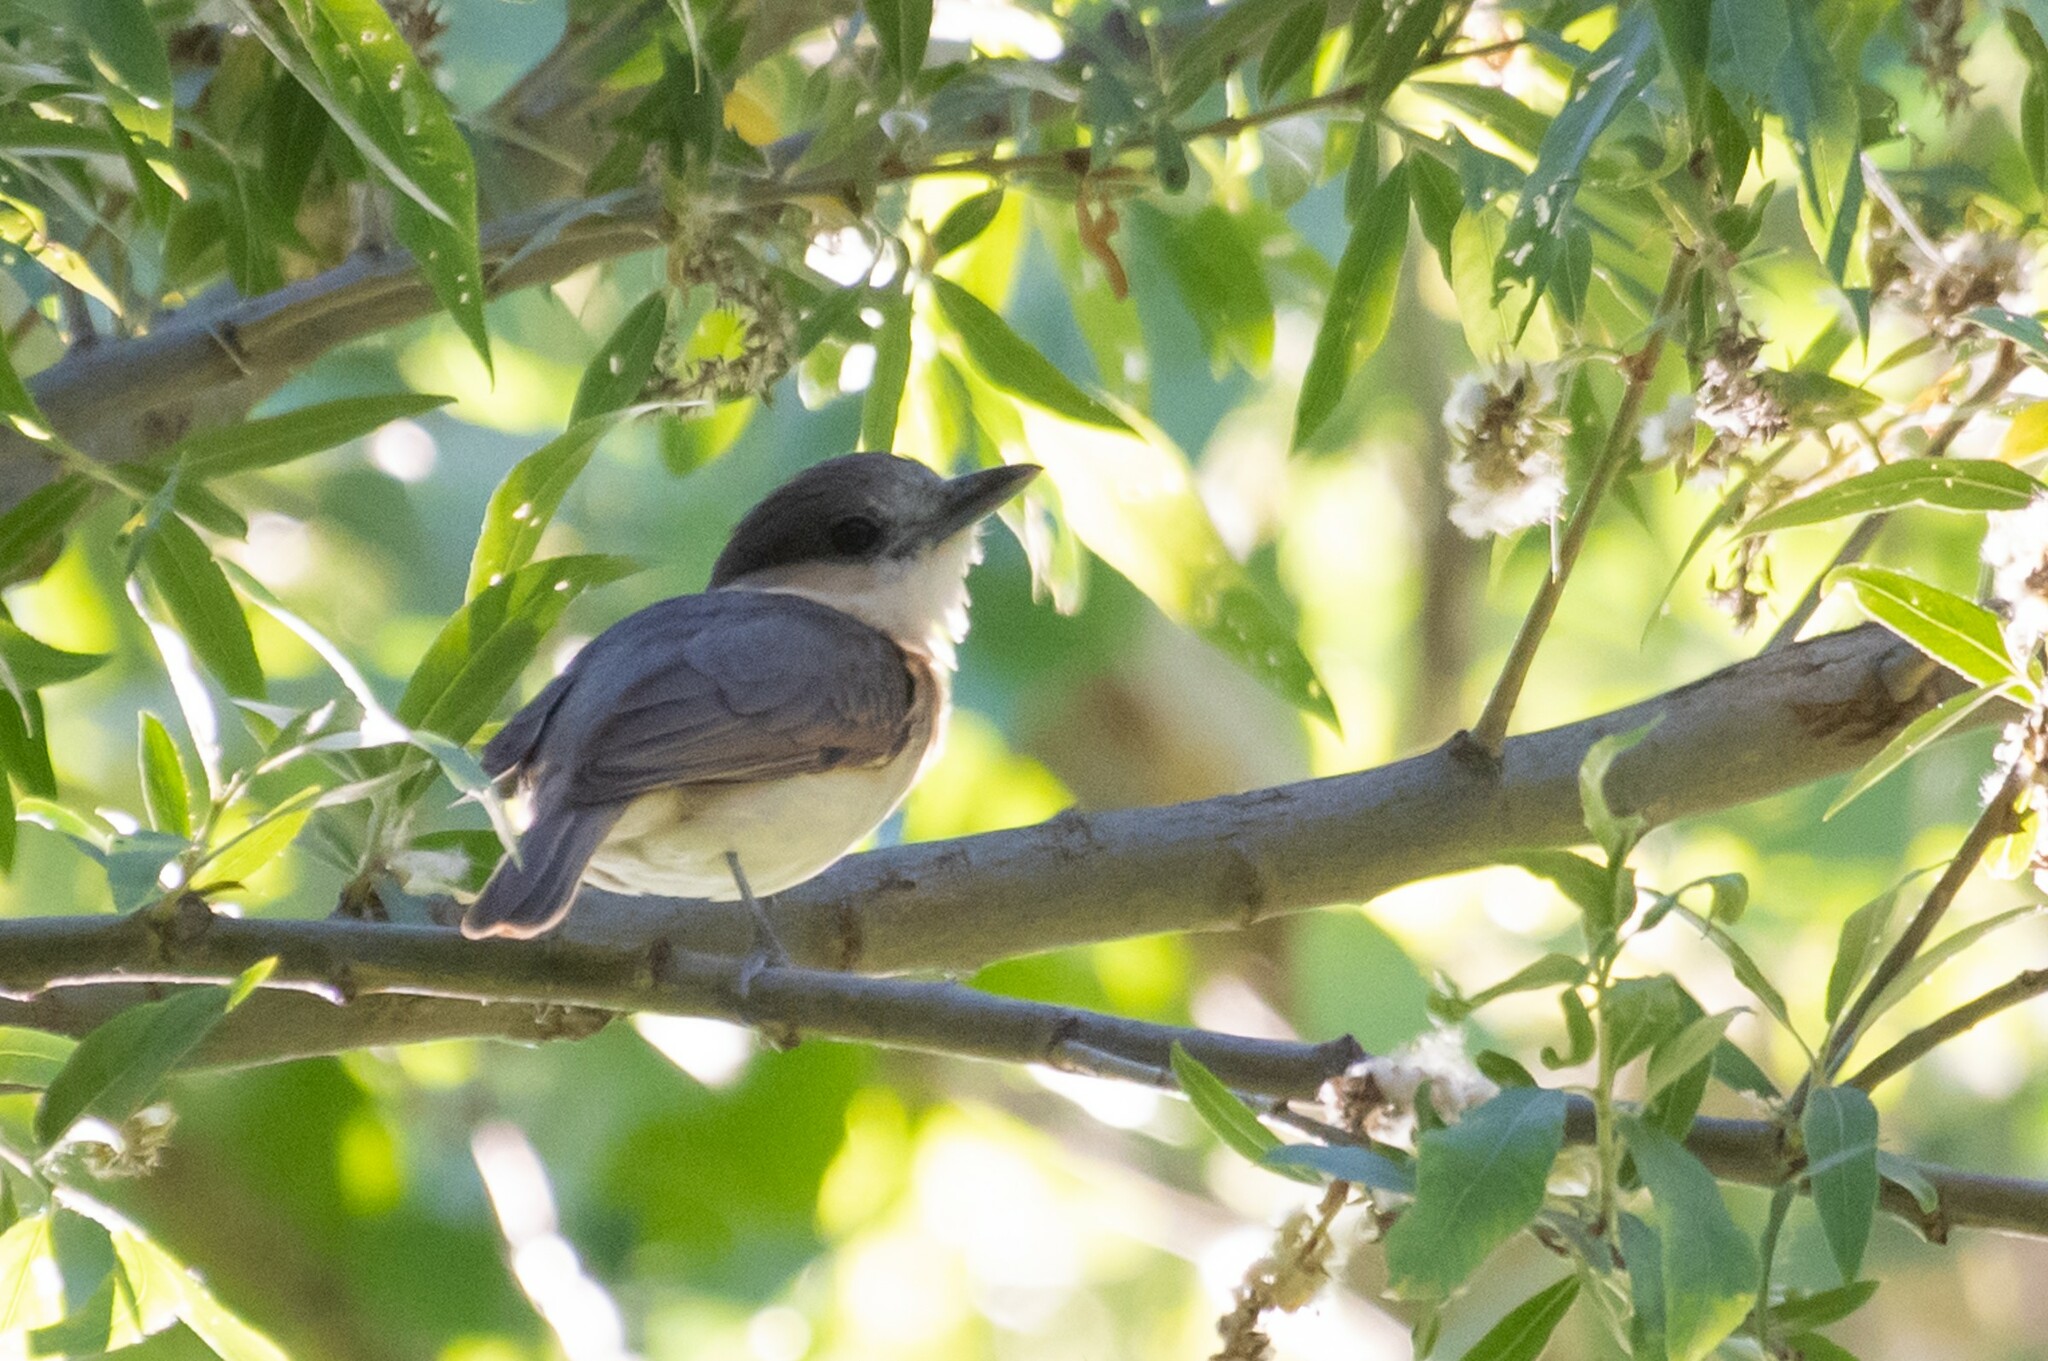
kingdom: Animalia
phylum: Chordata
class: Aves
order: Passeriformes
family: Cotingidae
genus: Pachyramphus
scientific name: Pachyramphus aglaiae
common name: Rose-throated becard
